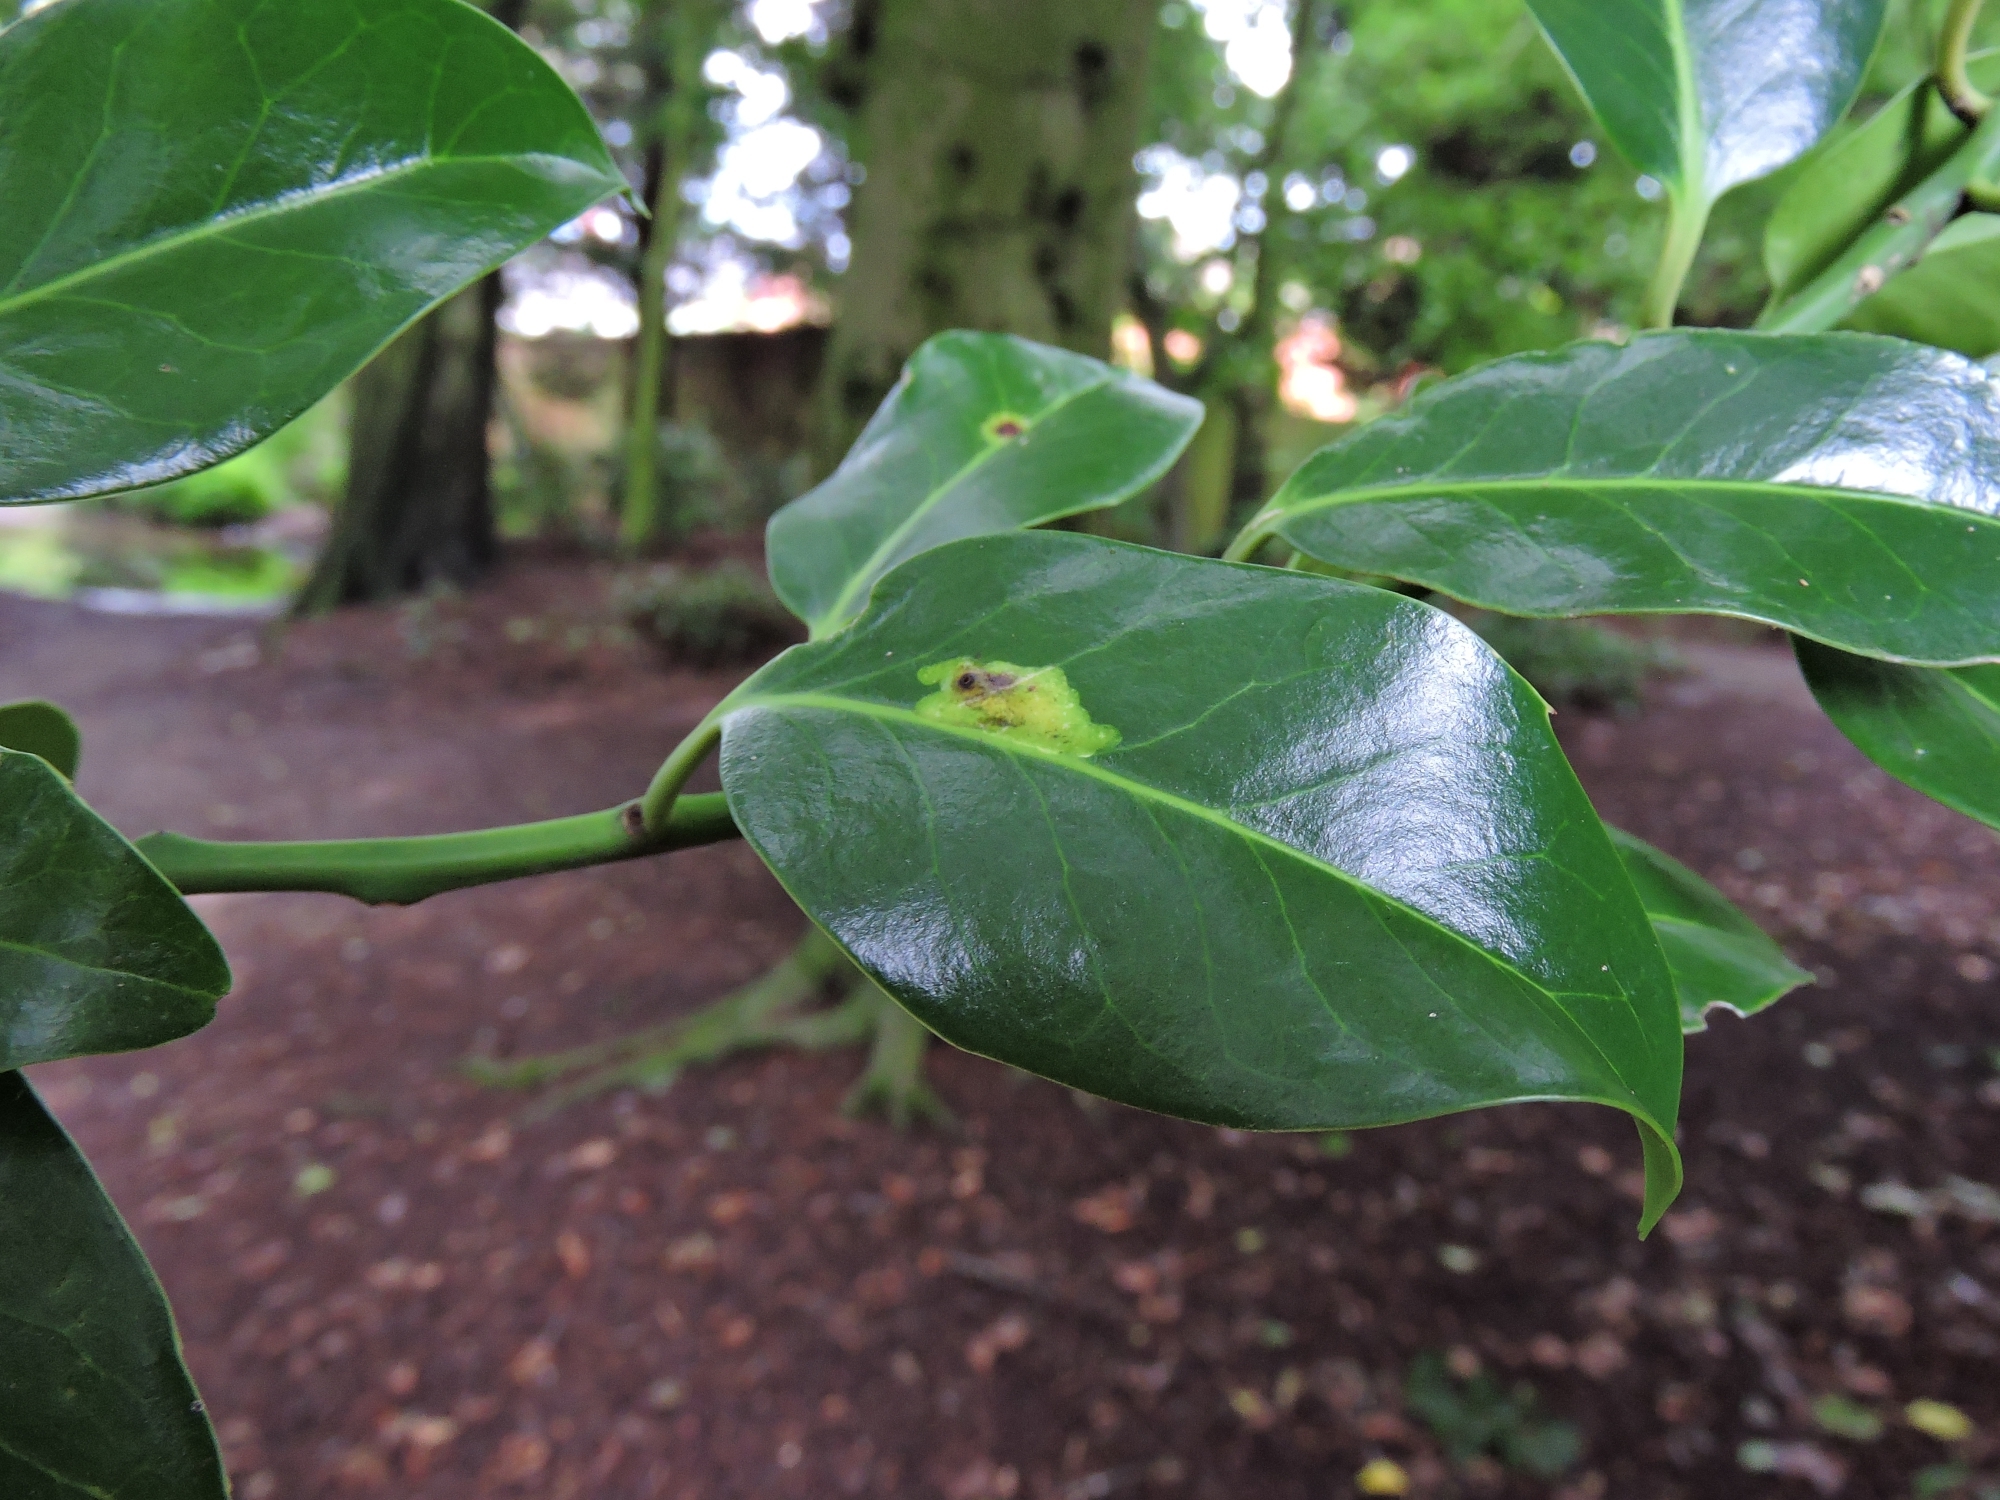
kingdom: Animalia
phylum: Arthropoda
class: Insecta
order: Diptera
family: Agromyzidae
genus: Phytomyza
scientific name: Phytomyza ilicis
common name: Holly leafminer
